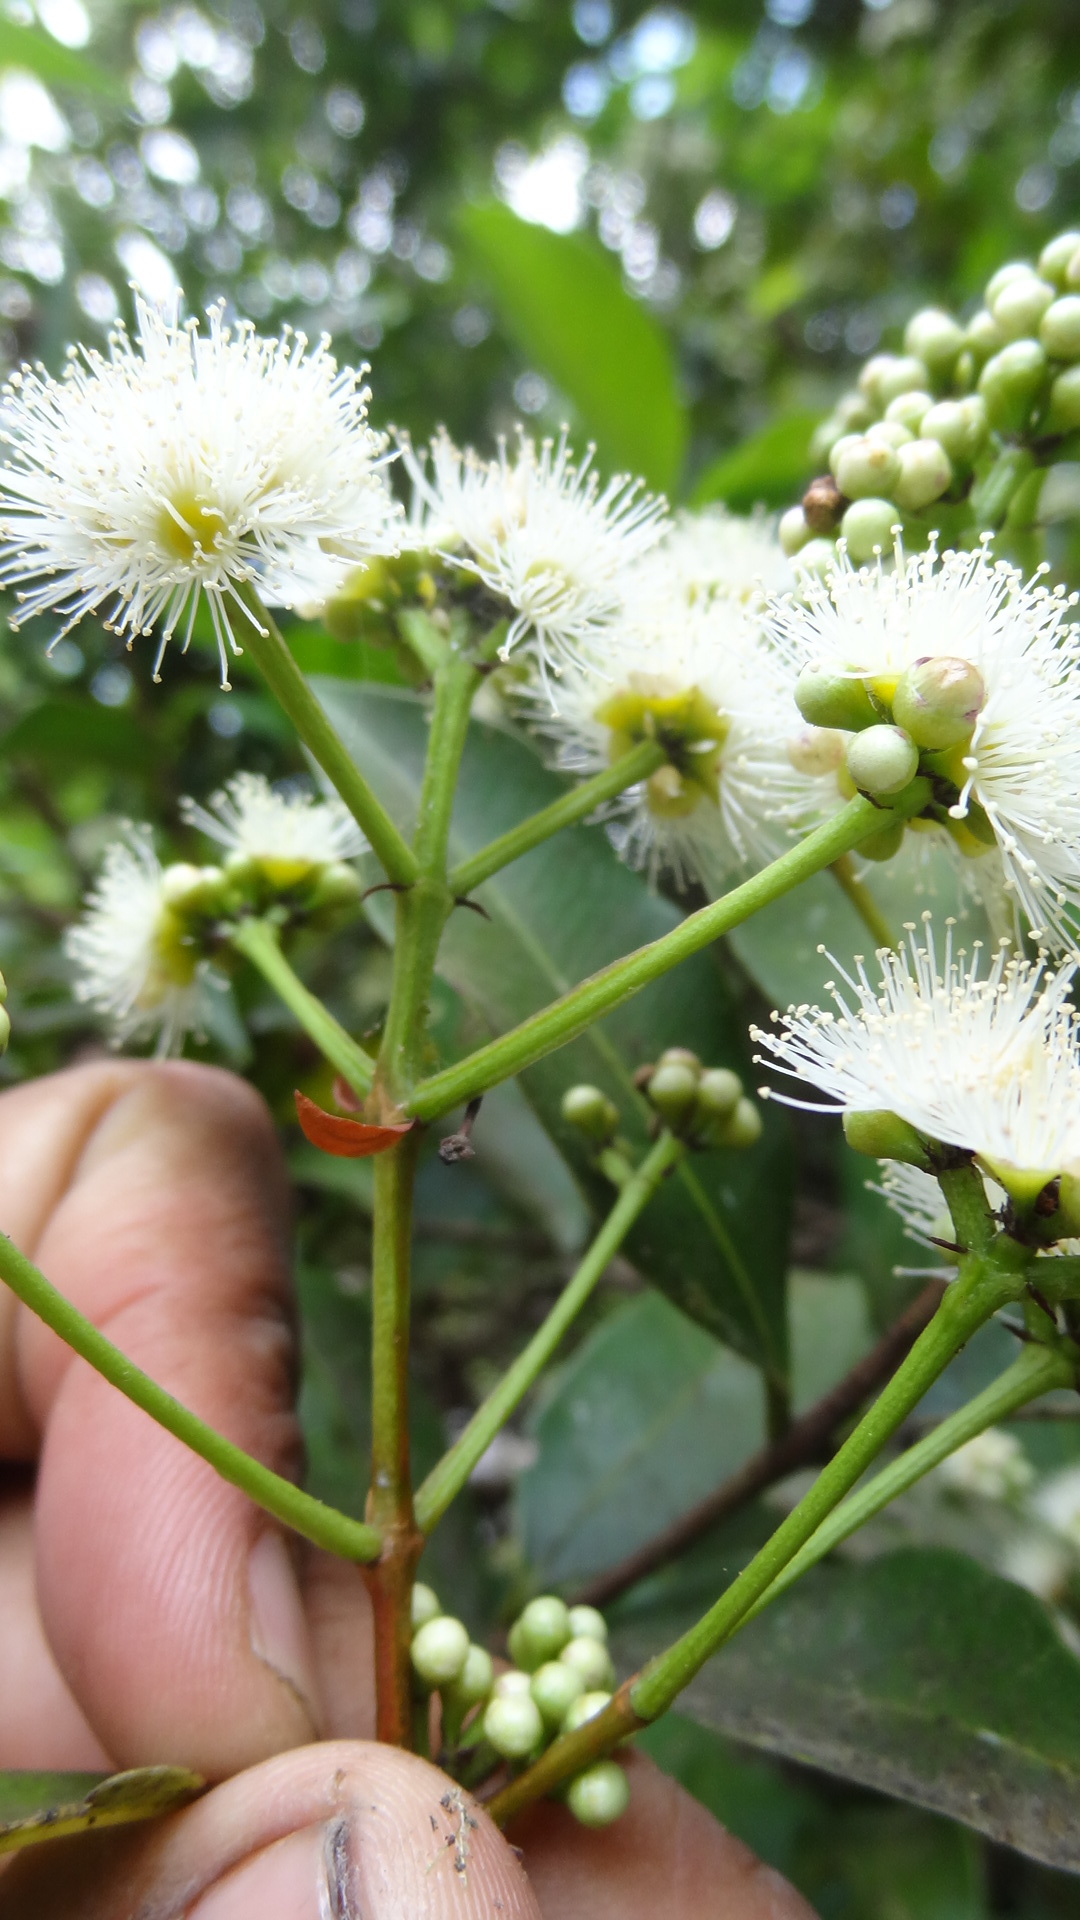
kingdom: Plantae
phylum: Tracheophyta
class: Magnoliopsida
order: Myrtales
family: Myrtaceae
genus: Syzygium
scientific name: Syzygium cumini
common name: Java plum
